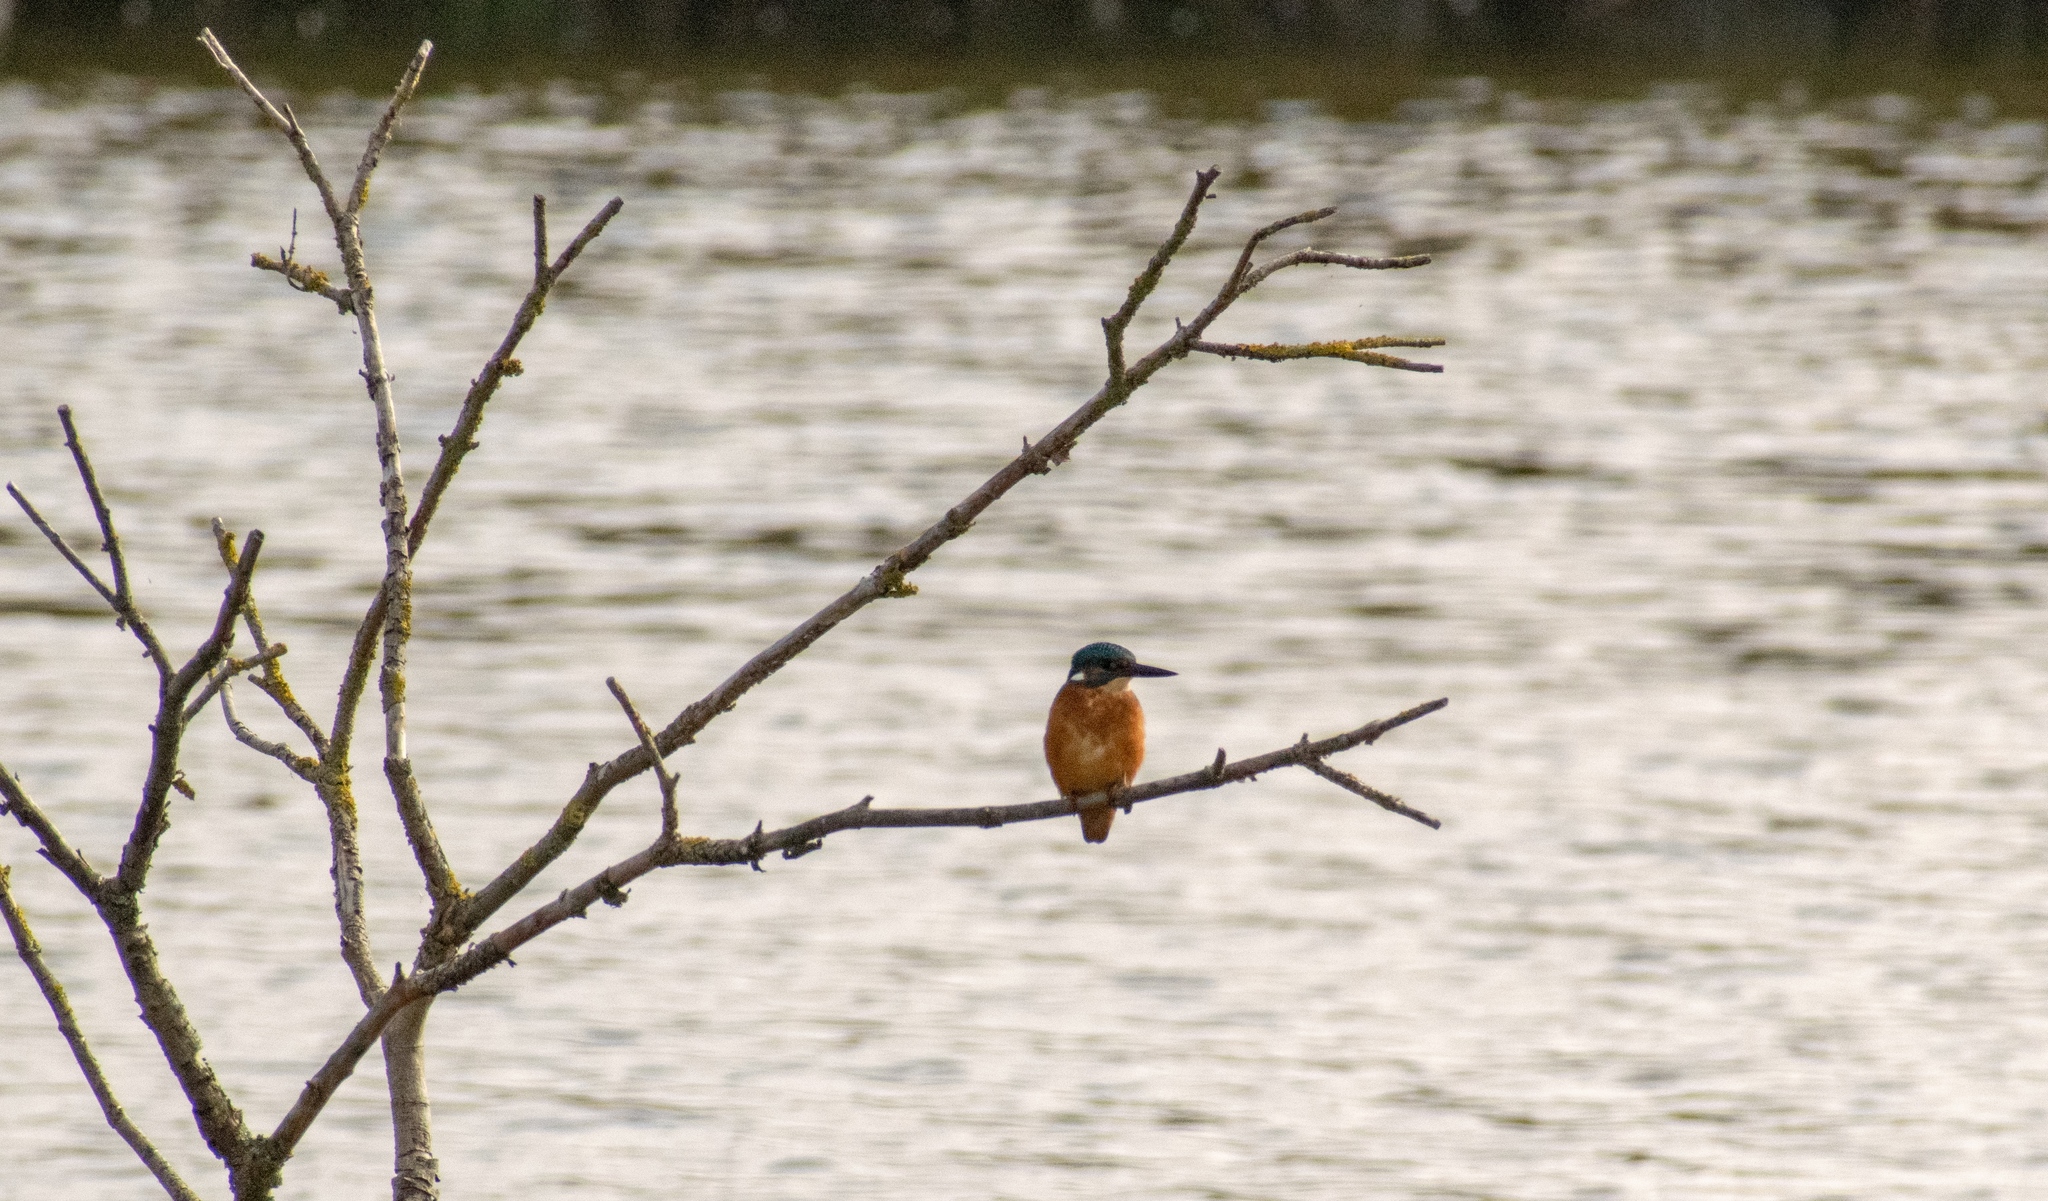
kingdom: Animalia
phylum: Chordata
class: Aves
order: Coraciiformes
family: Alcedinidae
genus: Alcedo
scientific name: Alcedo atthis
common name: Common kingfisher
